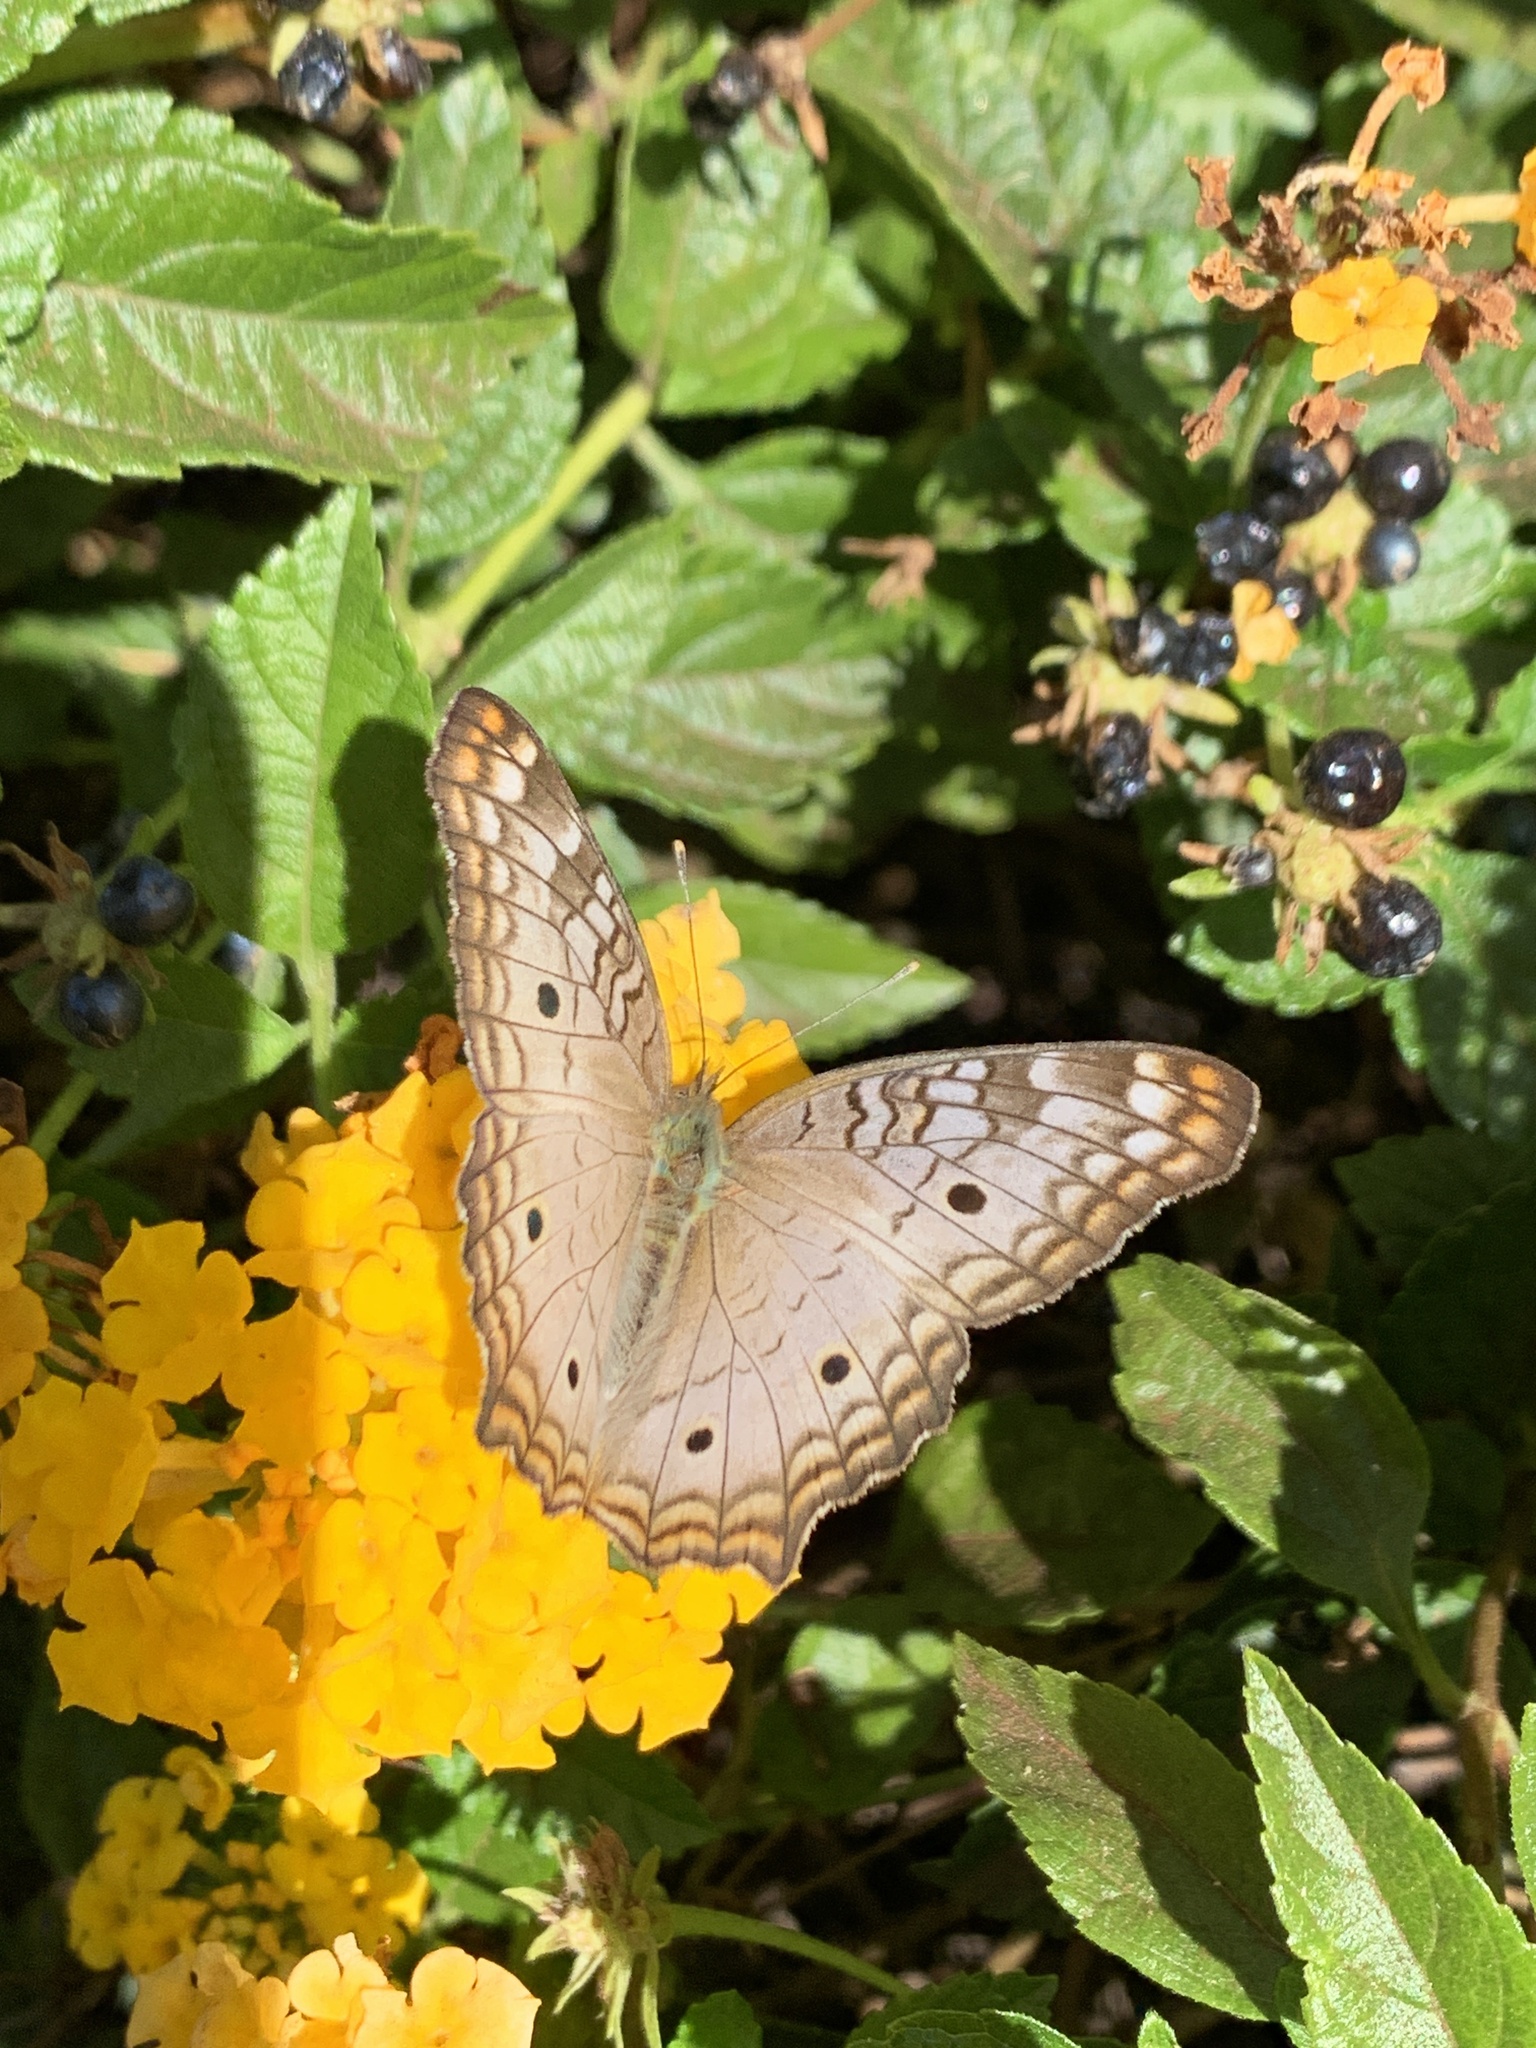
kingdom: Animalia
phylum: Arthropoda
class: Insecta
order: Lepidoptera
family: Nymphalidae
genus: Anartia
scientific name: Anartia jatrophae
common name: White peacock
